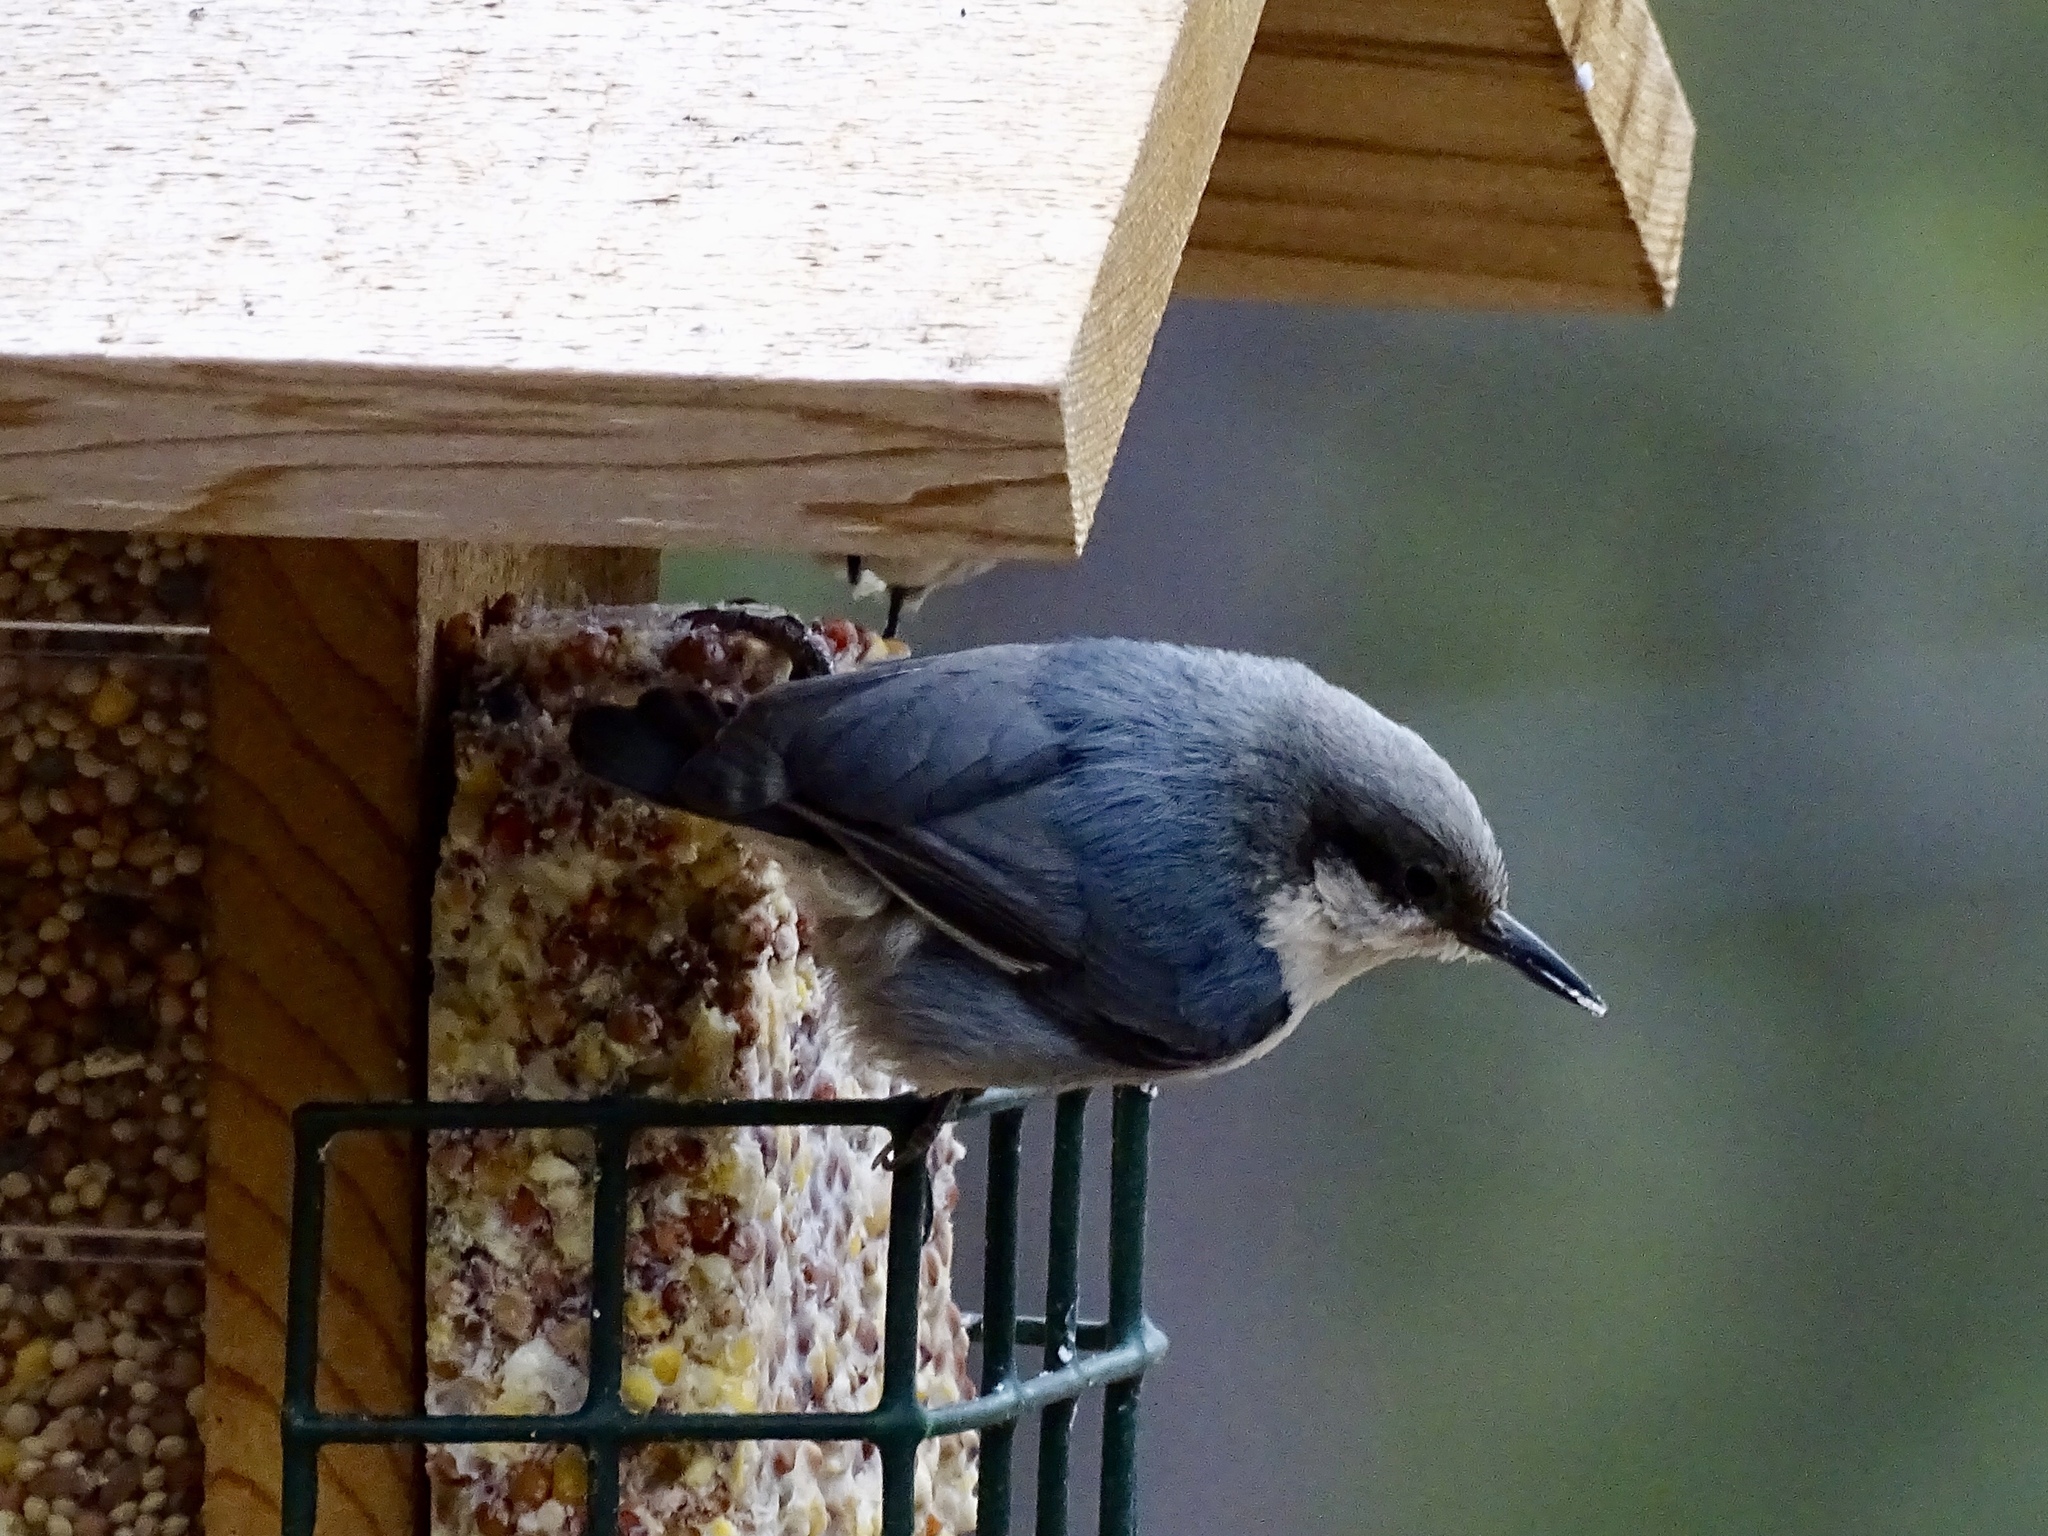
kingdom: Animalia
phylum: Chordata
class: Aves
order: Passeriformes
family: Sittidae
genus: Sitta
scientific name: Sitta pygmaea
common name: Pygmy nuthatch
